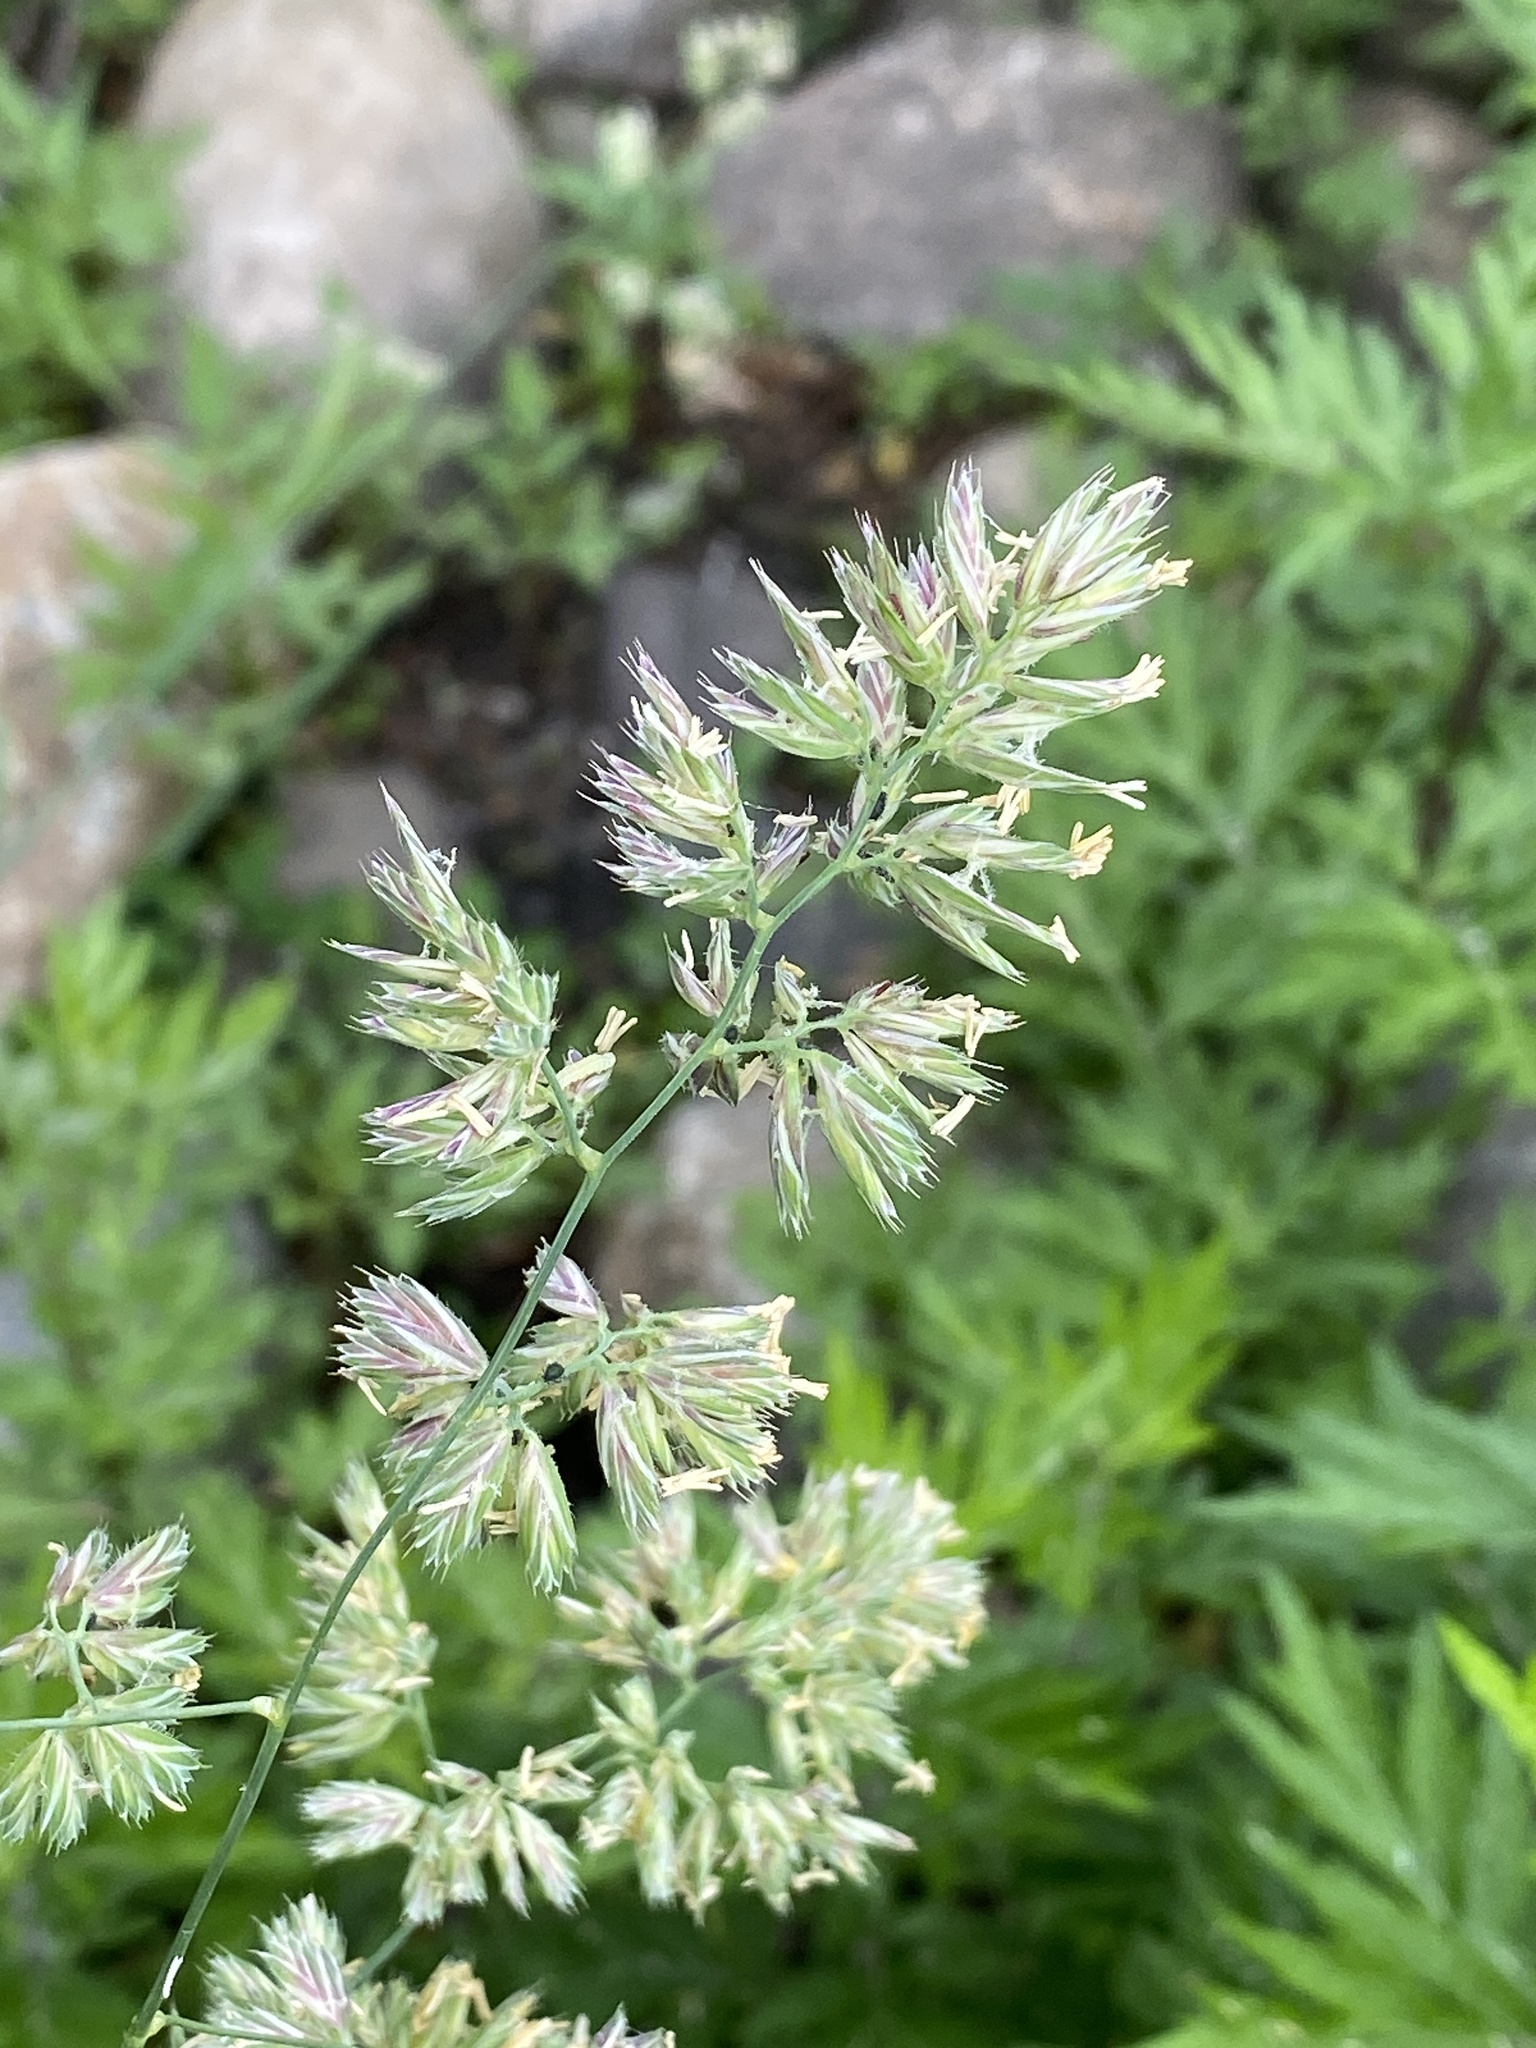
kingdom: Plantae
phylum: Tracheophyta
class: Liliopsida
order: Poales
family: Poaceae
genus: Dactylis
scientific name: Dactylis glomerata
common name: Orchardgrass
